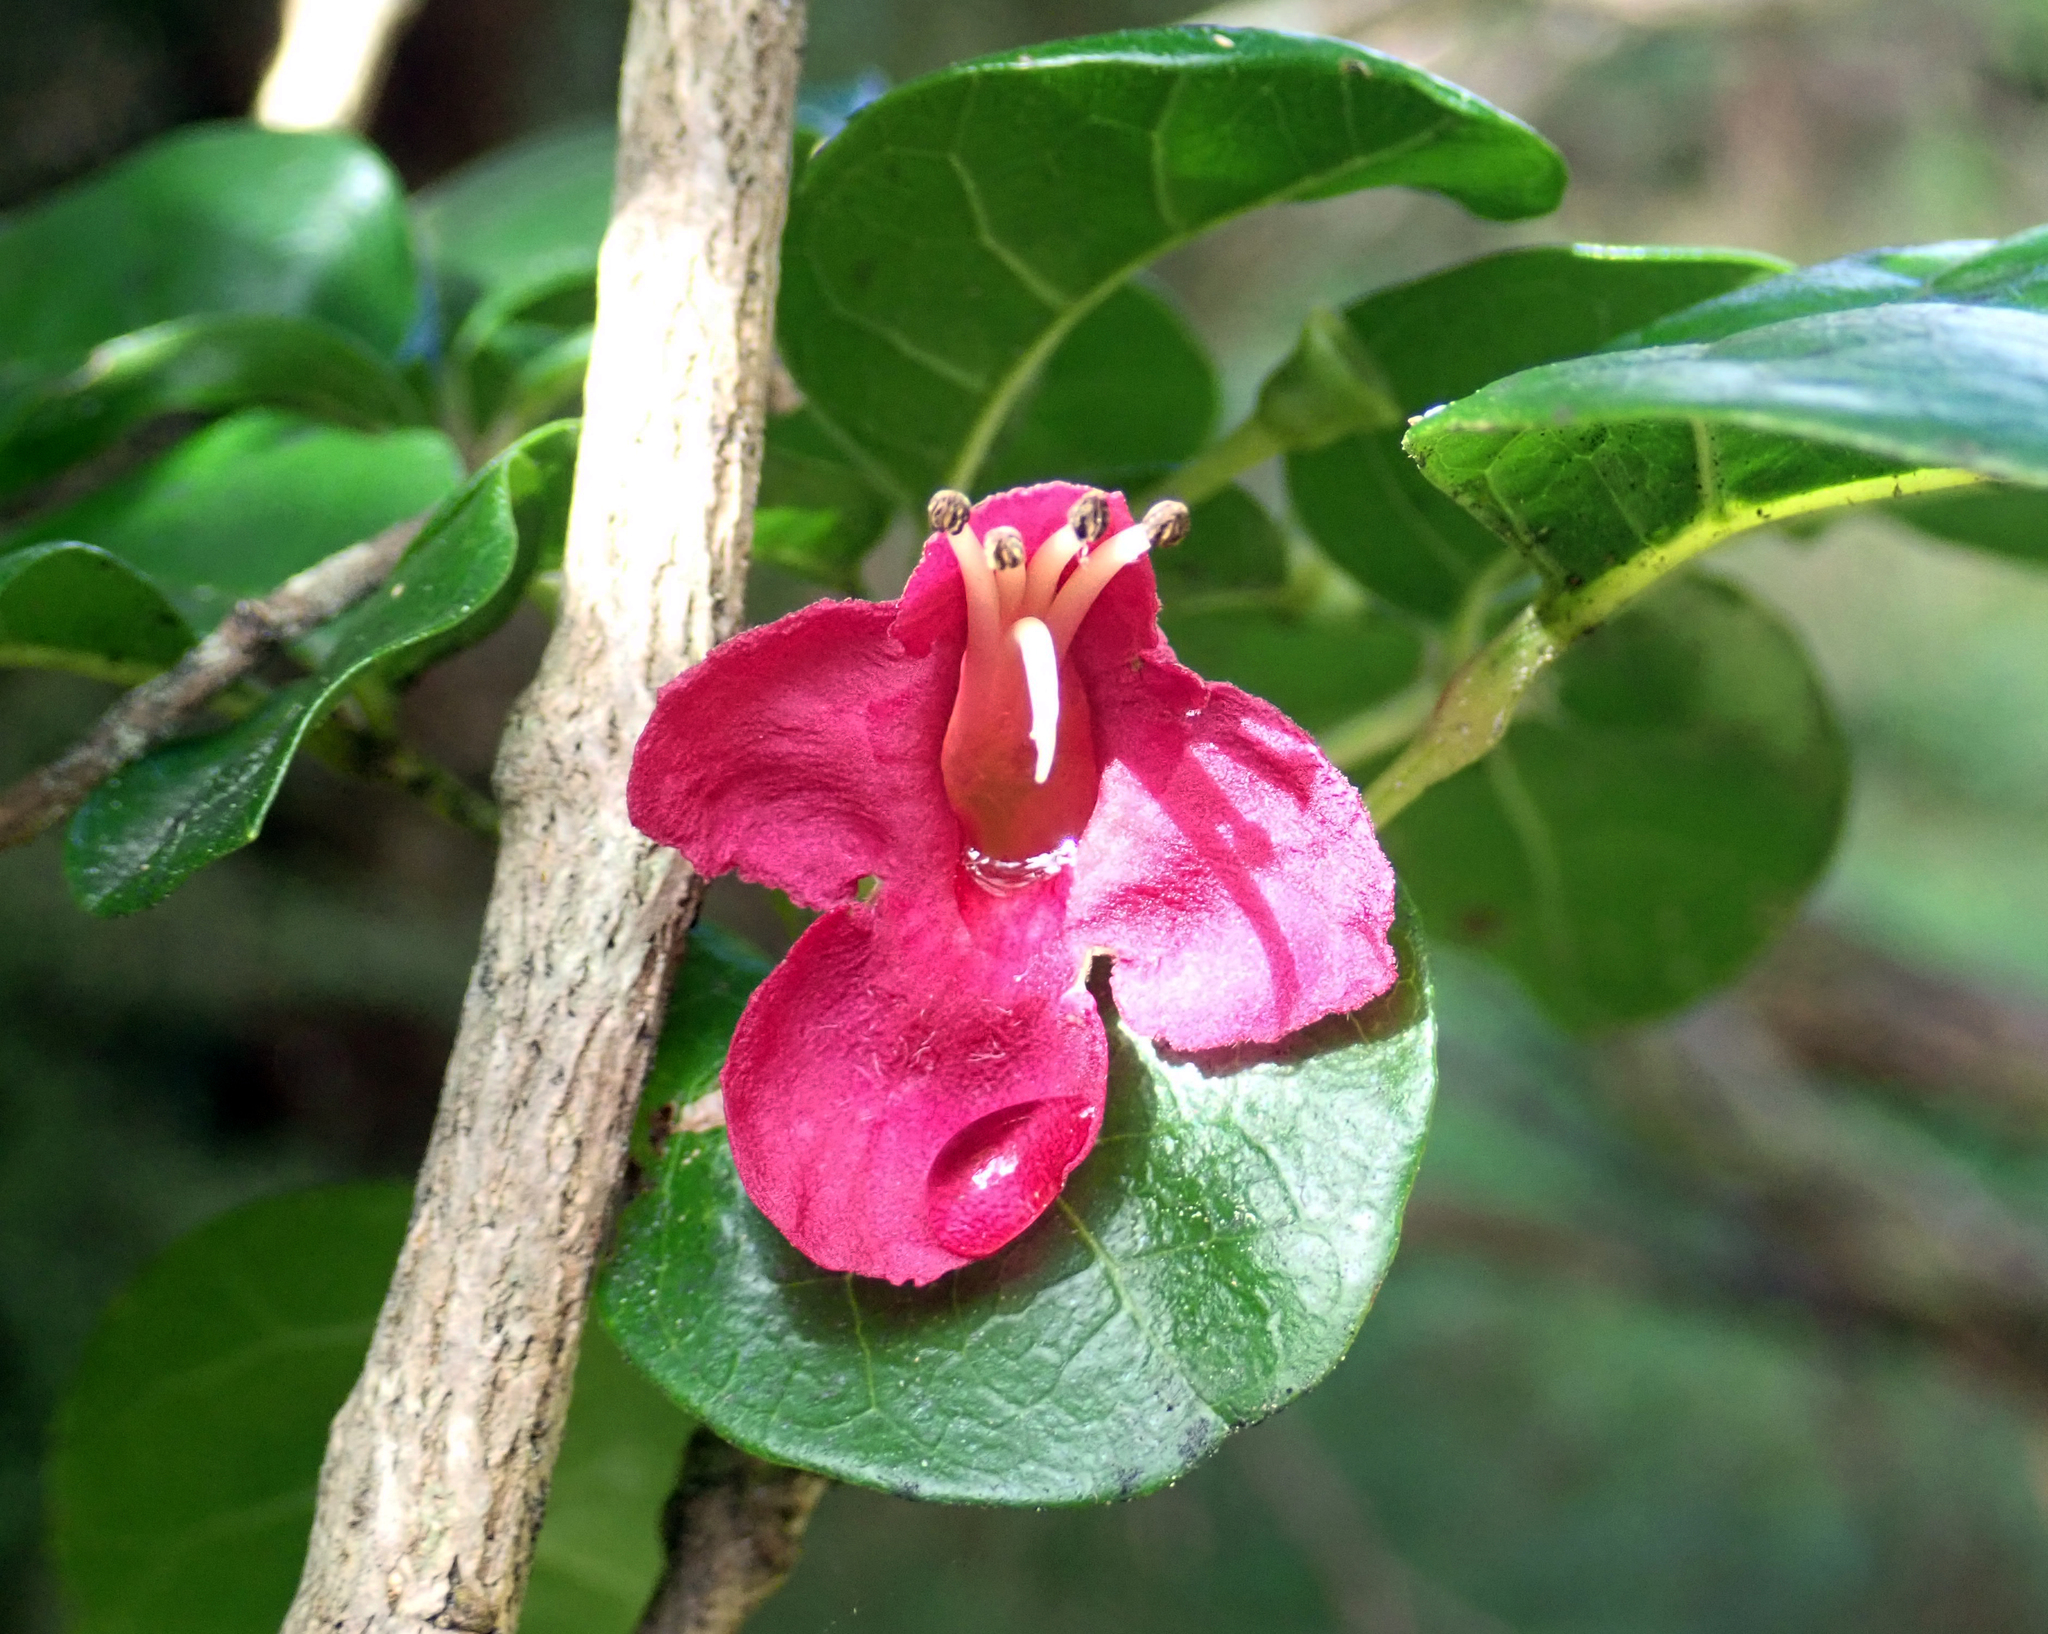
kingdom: Plantae
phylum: Tracheophyta
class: Magnoliopsida
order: Lamiales
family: Lamiaceae
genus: Vitex
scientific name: Vitex lucens
